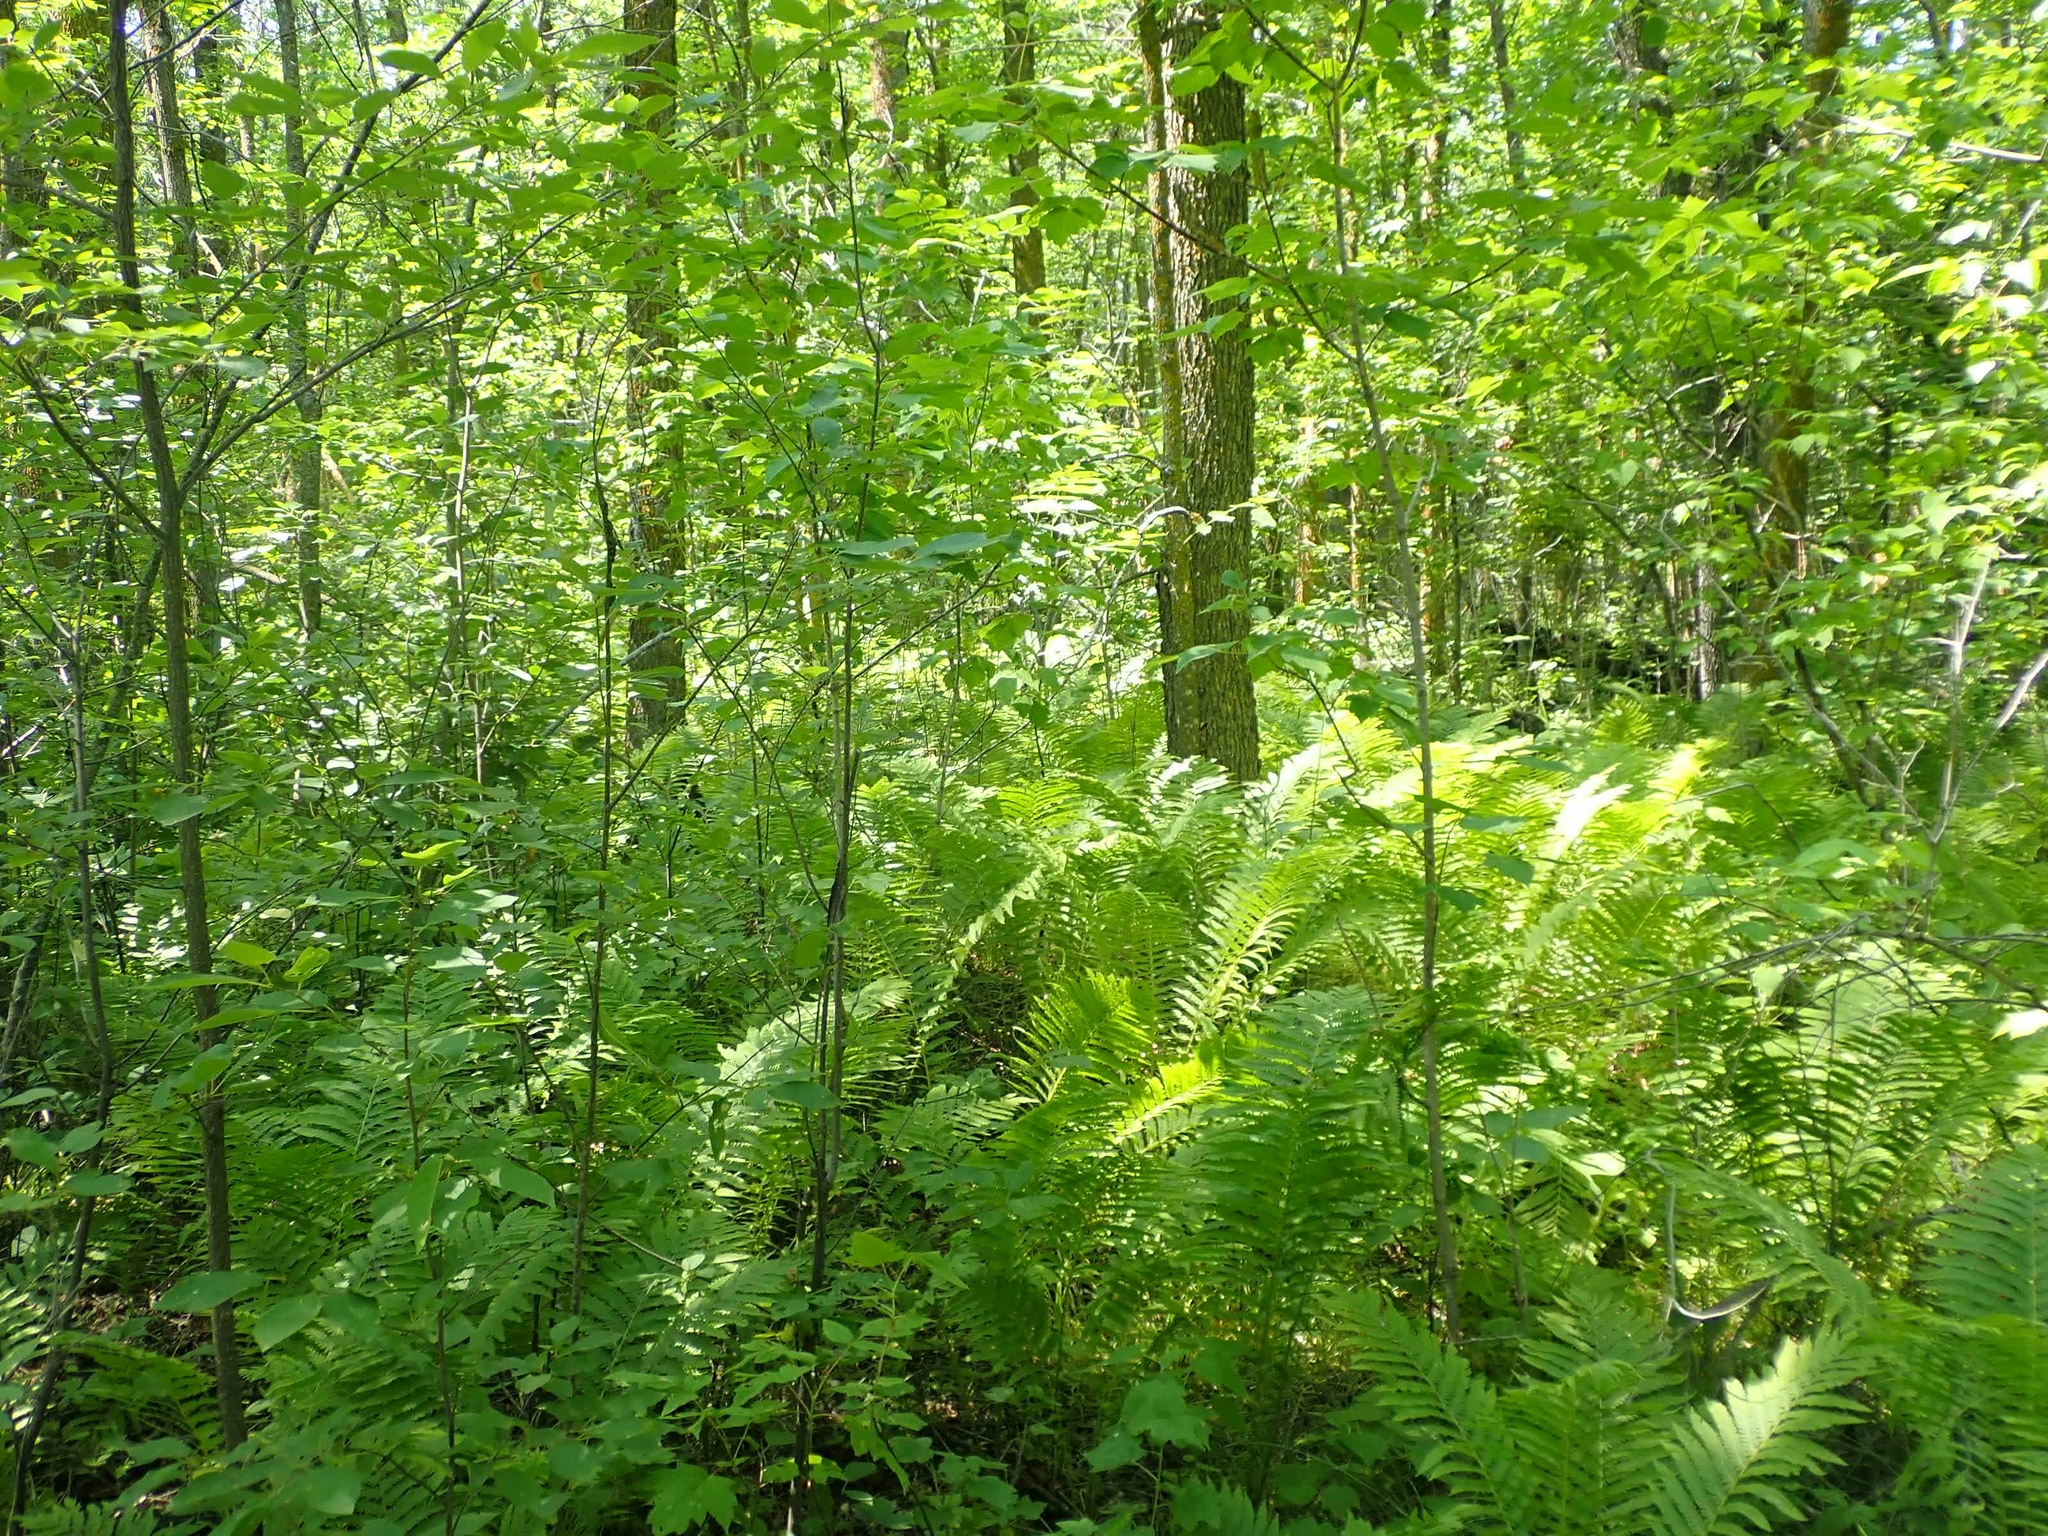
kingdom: Plantae
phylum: Tracheophyta
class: Polypodiopsida
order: Polypodiales
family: Onocleaceae
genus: Matteuccia
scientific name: Matteuccia struthiopteris
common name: Ostrich fern
